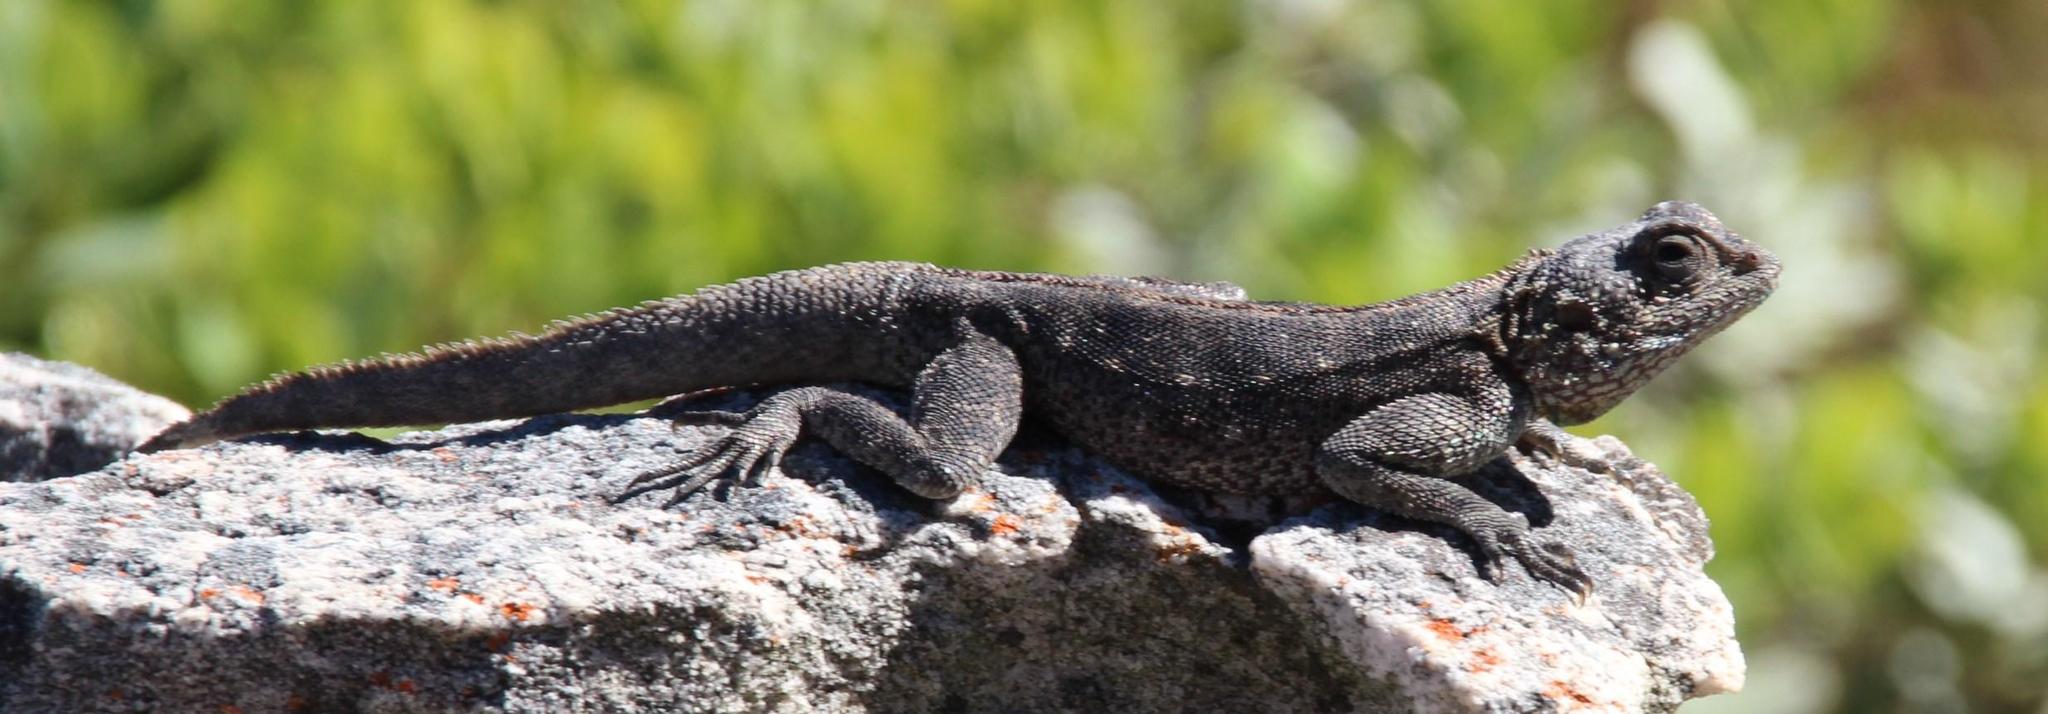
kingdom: Animalia
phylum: Chordata
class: Squamata
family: Agamidae
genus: Agama
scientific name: Agama atra
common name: Southern african rock agama
